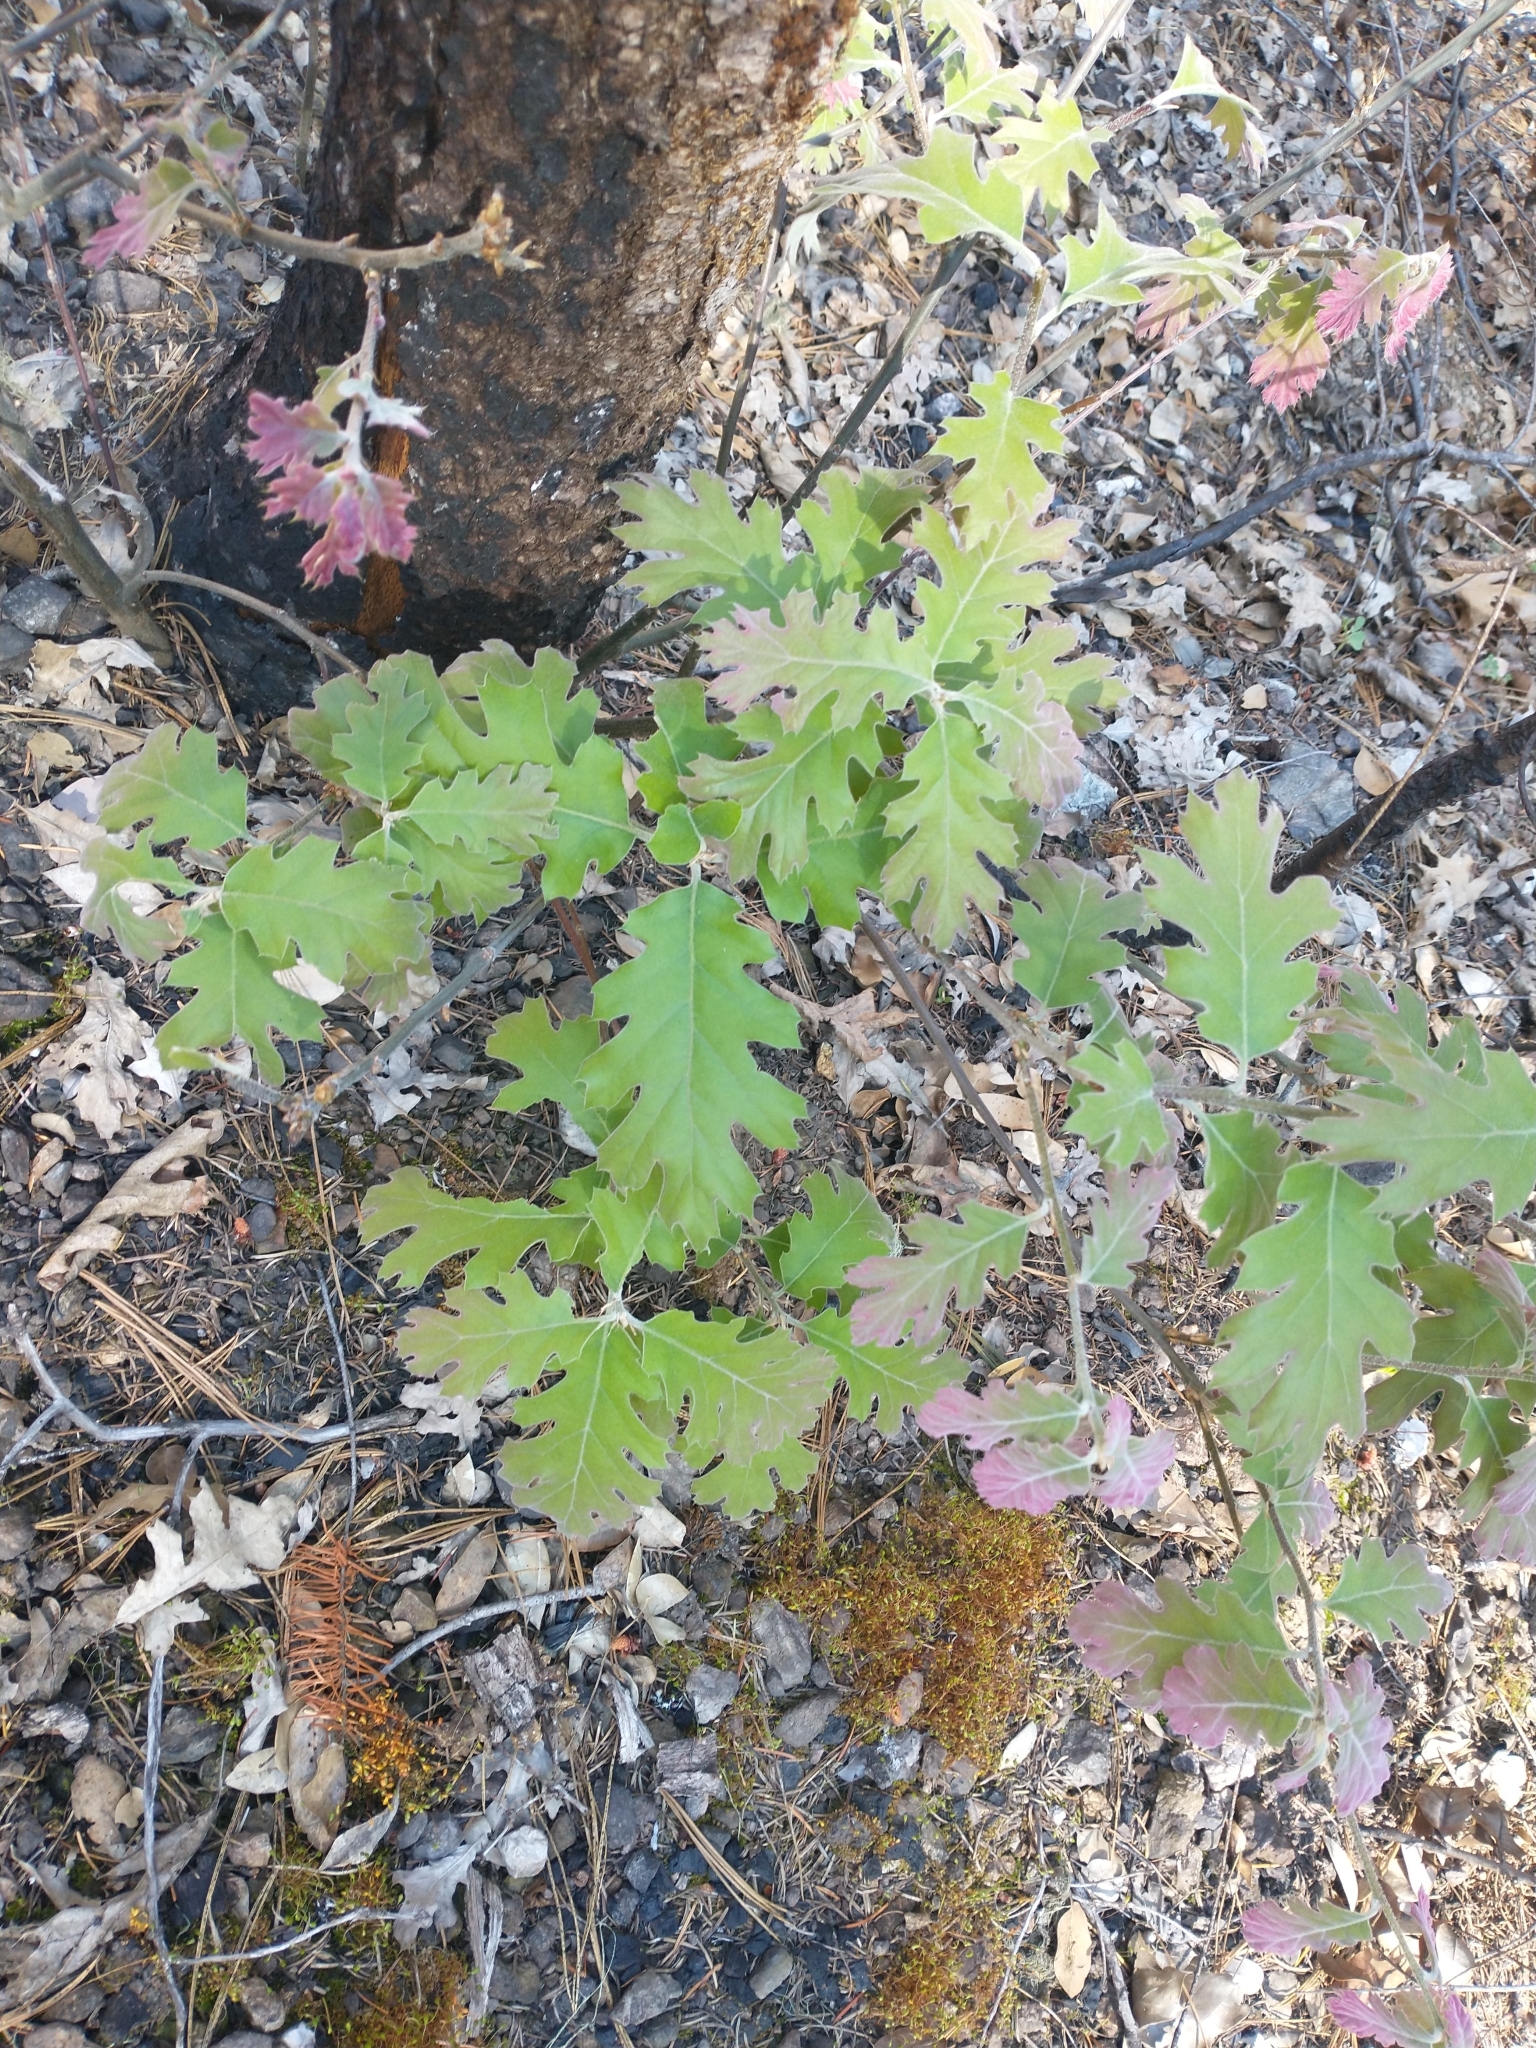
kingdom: Plantae
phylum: Tracheophyta
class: Magnoliopsida
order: Fagales
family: Fagaceae
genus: Quercus
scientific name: Quercus kelloggii
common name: California black oak
